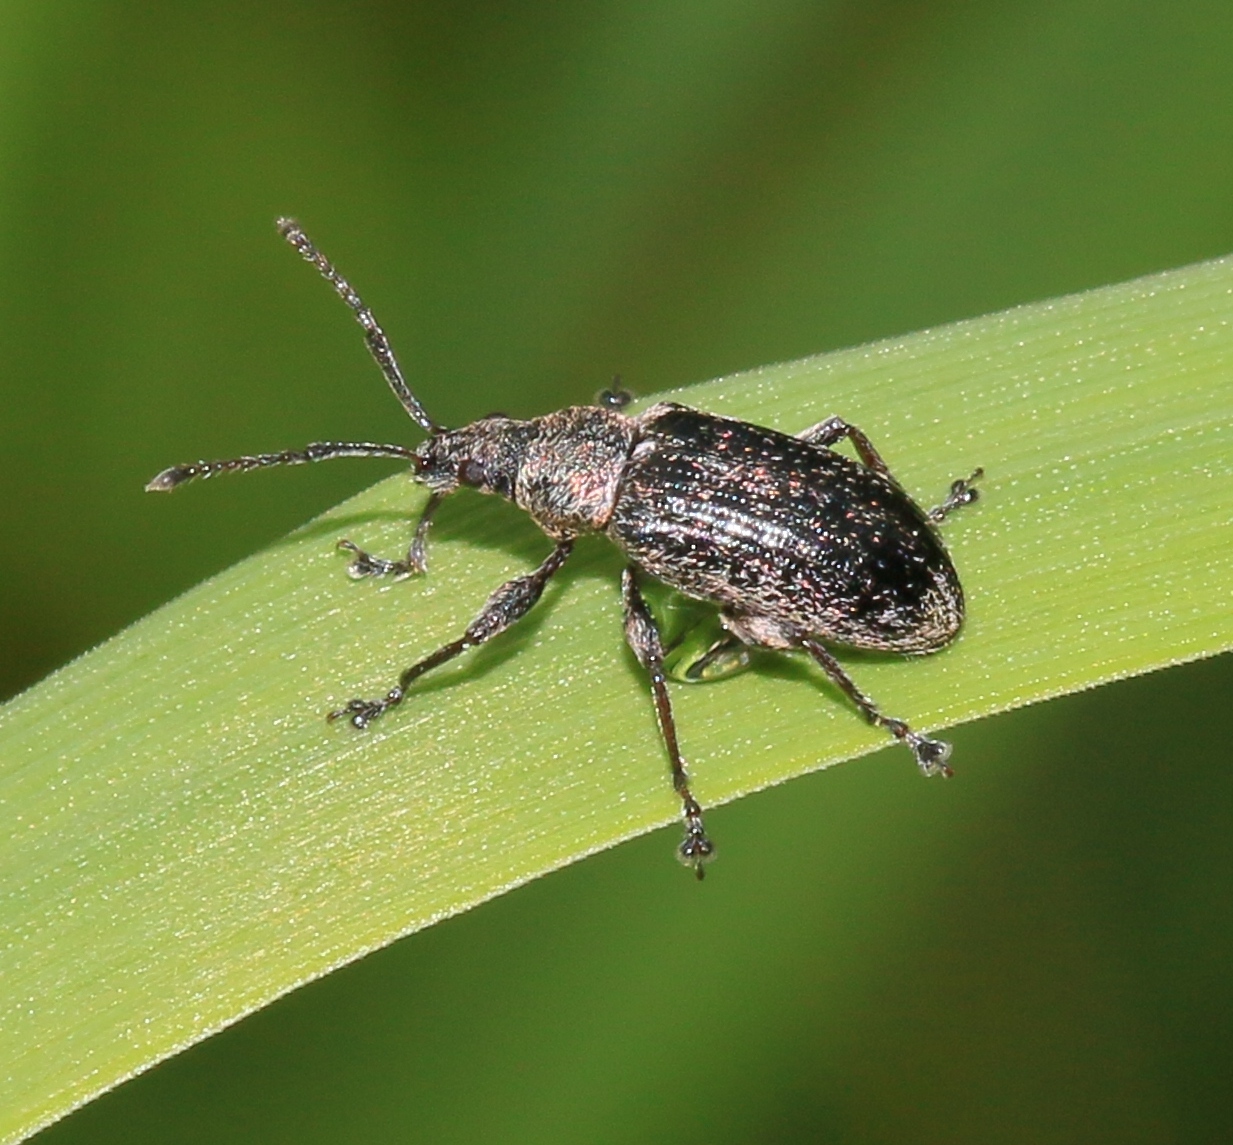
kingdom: Animalia
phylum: Arthropoda
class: Insecta
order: Coleoptera
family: Curculionidae
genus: Phyllobius
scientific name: Phyllobius pyri
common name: Common leaf weevil
